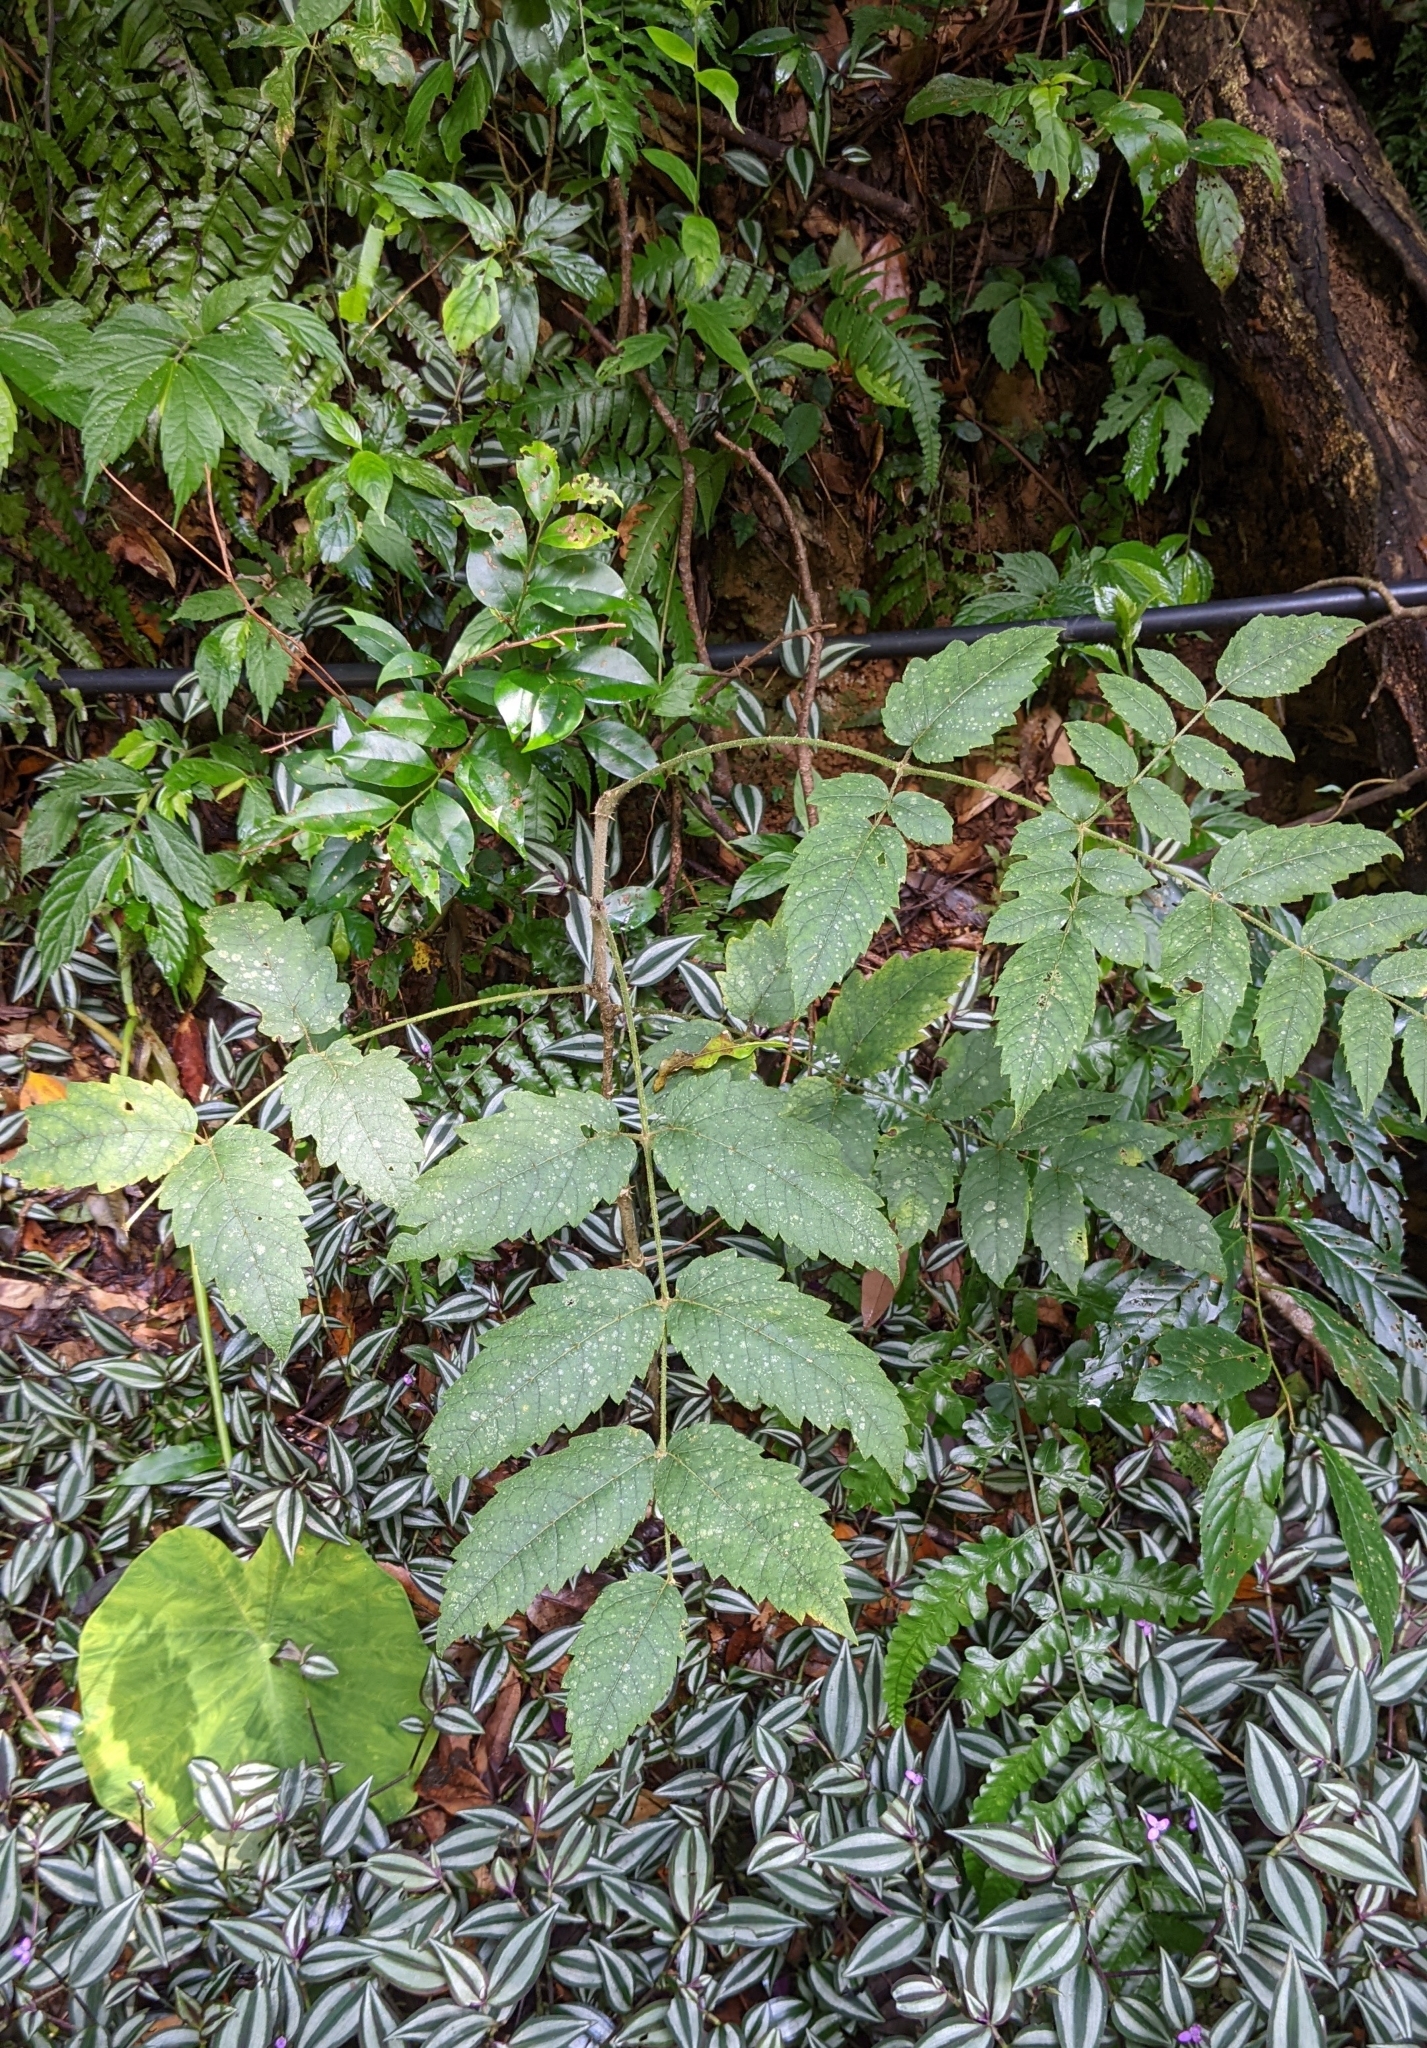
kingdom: Plantae
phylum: Tracheophyta
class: Magnoliopsida
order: Apiales
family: Araliaceae
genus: Aralia
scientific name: Aralia decaisneana
